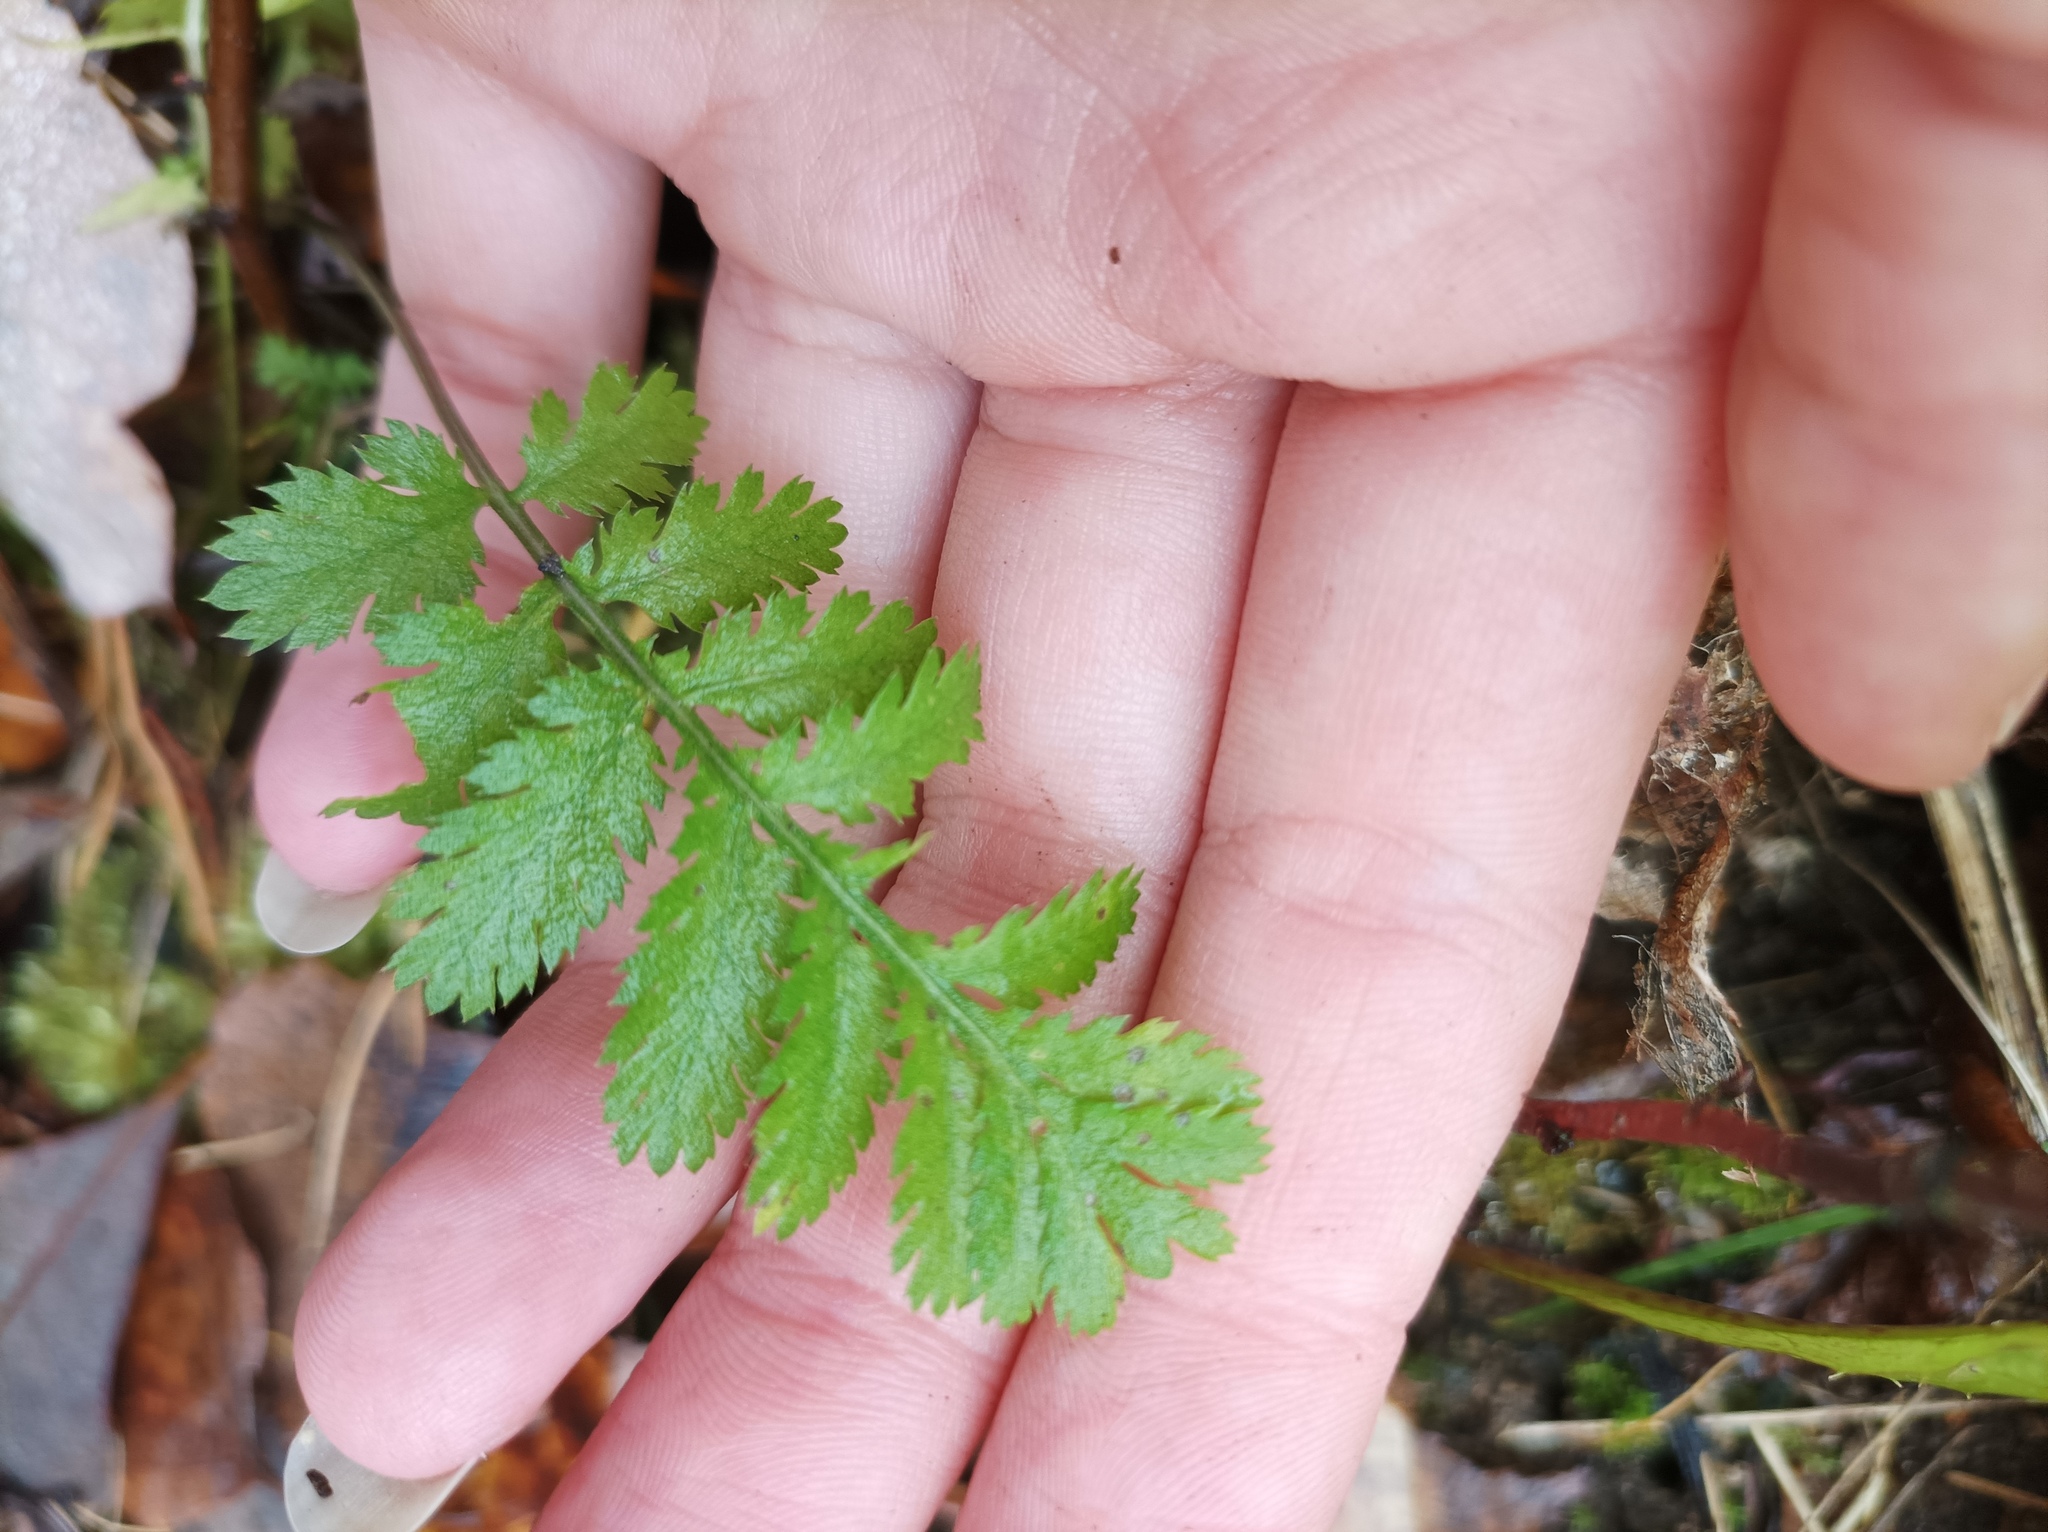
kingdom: Plantae
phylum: Tracheophyta
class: Magnoliopsida
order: Asterales
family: Asteraceae
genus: Tanacetum
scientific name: Tanacetum vulgare
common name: Common tansy
